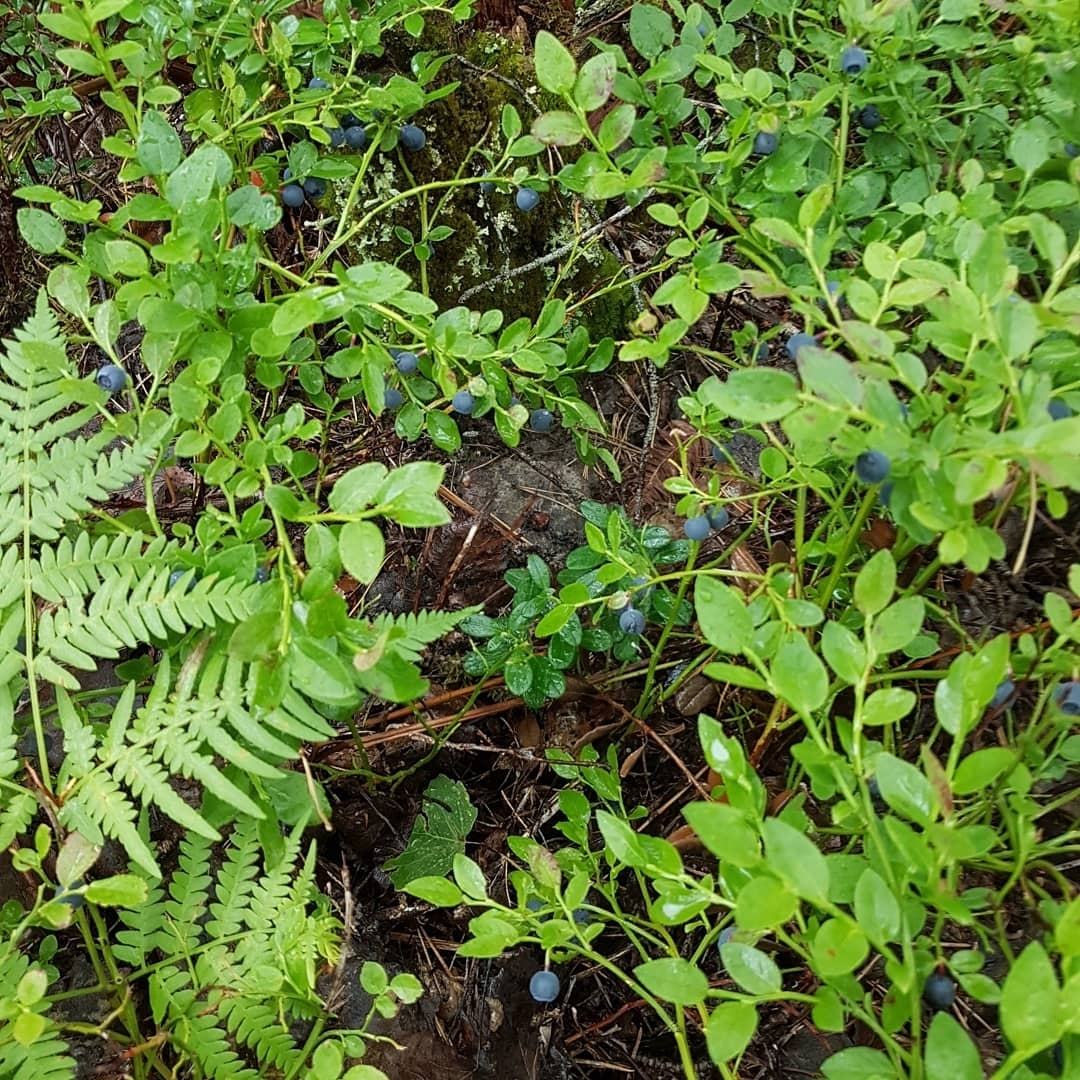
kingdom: Plantae
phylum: Tracheophyta
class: Magnoliopsida
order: Ericales
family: Ericaceae
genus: Vaccinium
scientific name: Vaccinium myrtillus
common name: Bilberry
